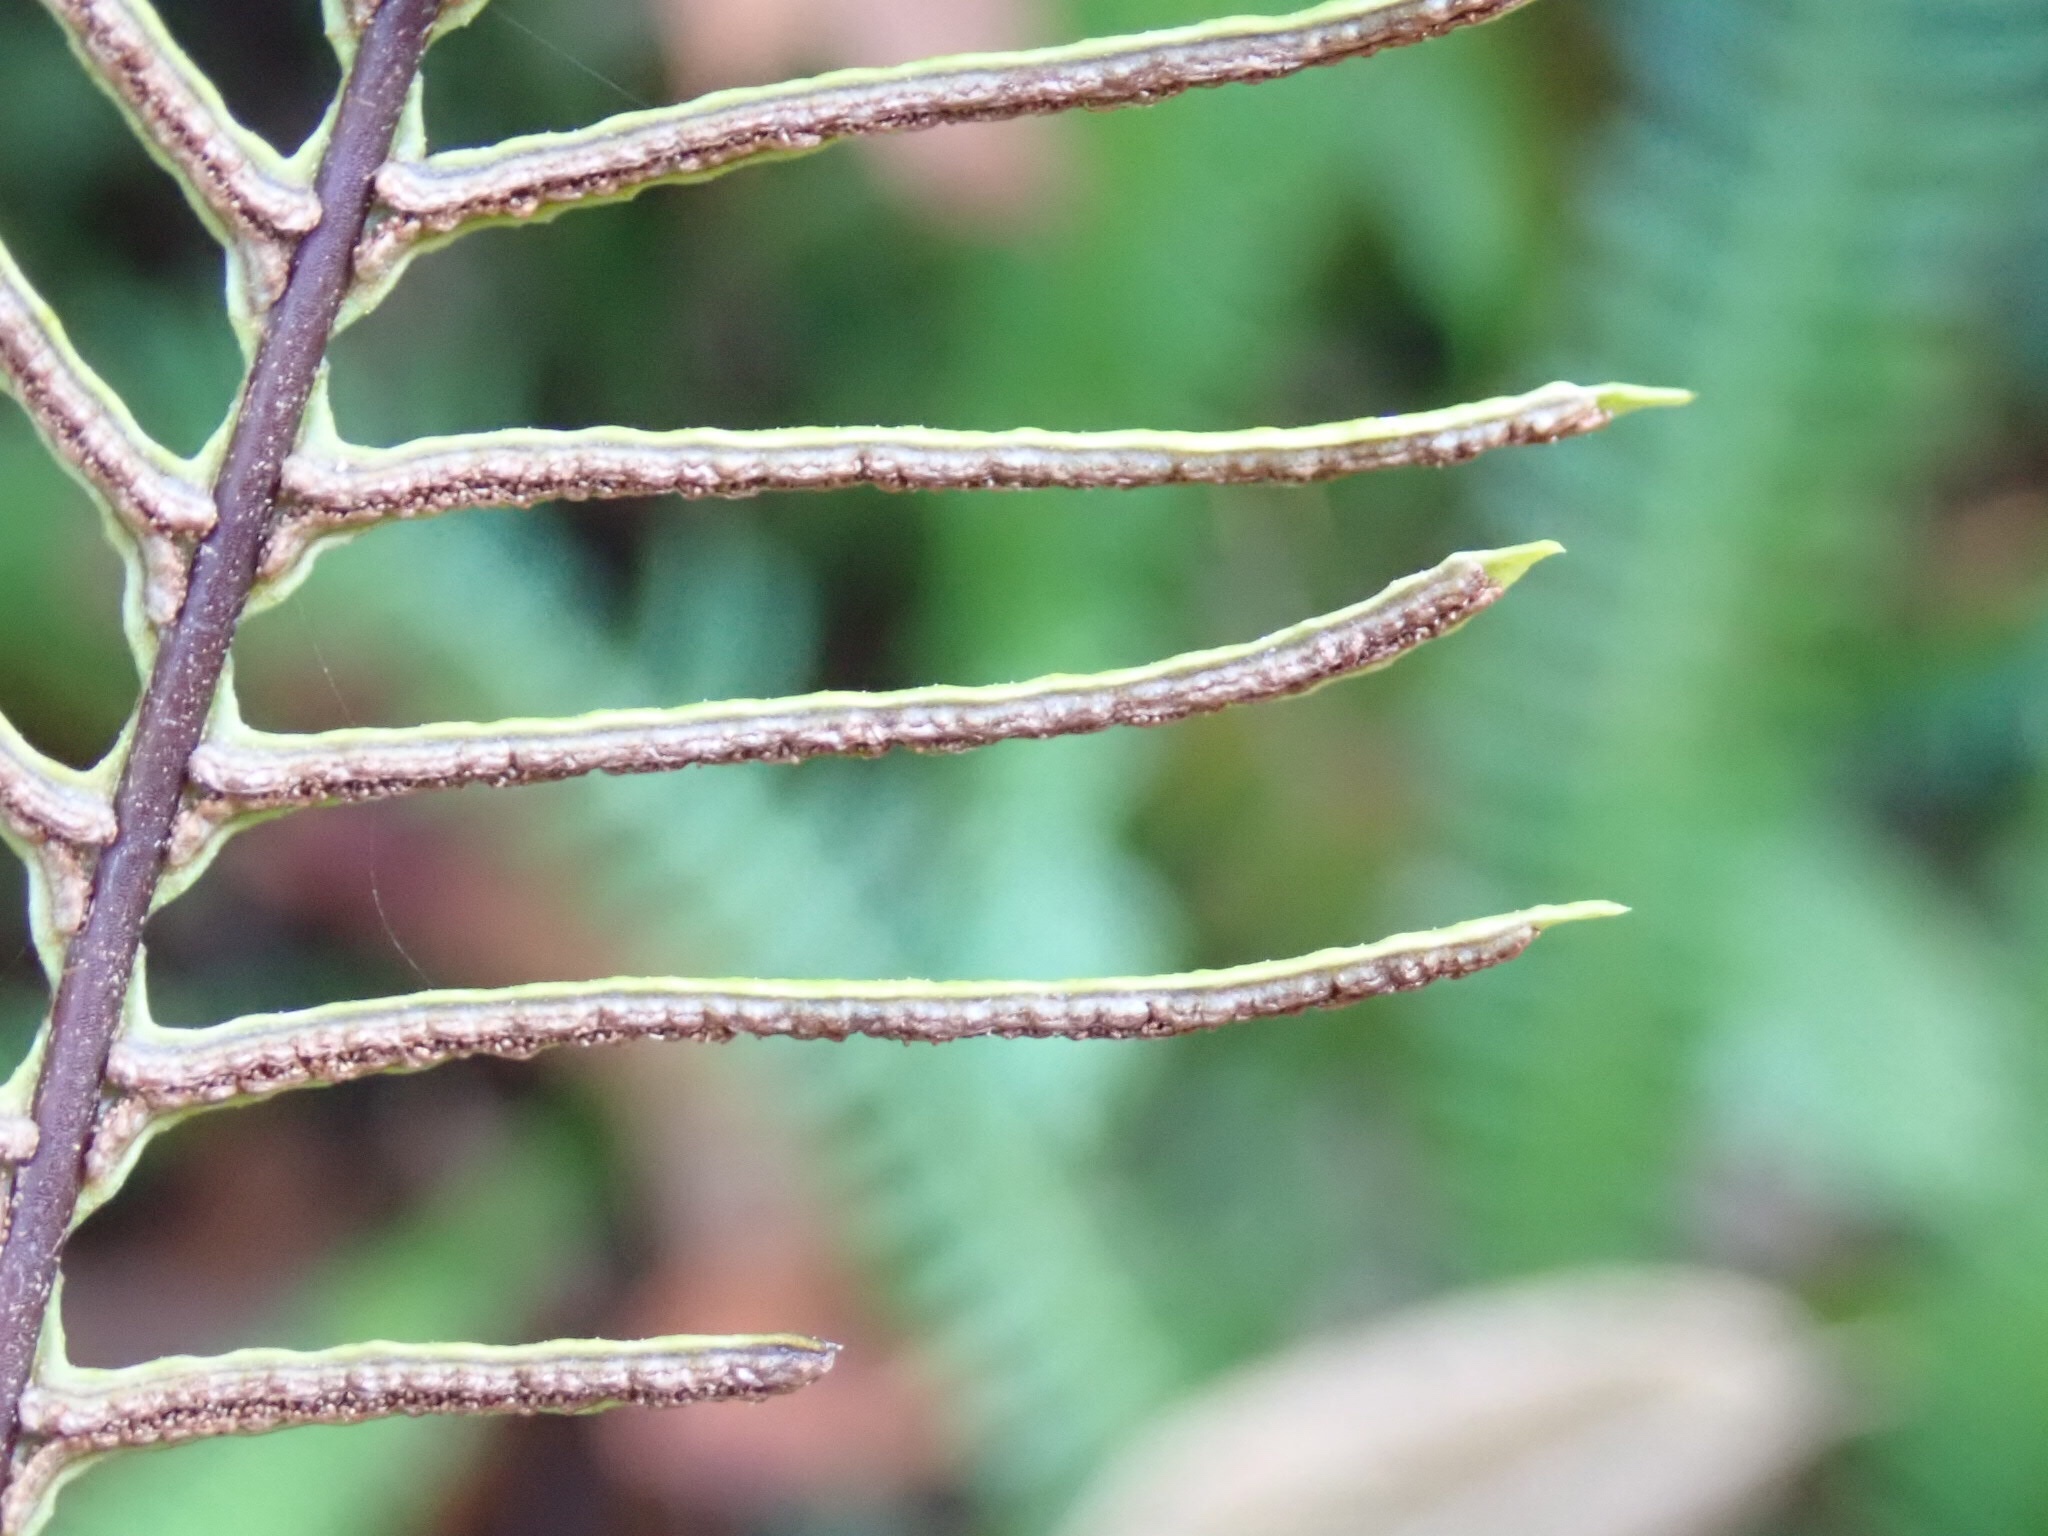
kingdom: Plantae
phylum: Tracheophyta
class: Polypodiopsida
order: Polypodiales
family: Blechnaceae
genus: Struthiopteris
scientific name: Struthiopteris spicant
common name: Deer fern
